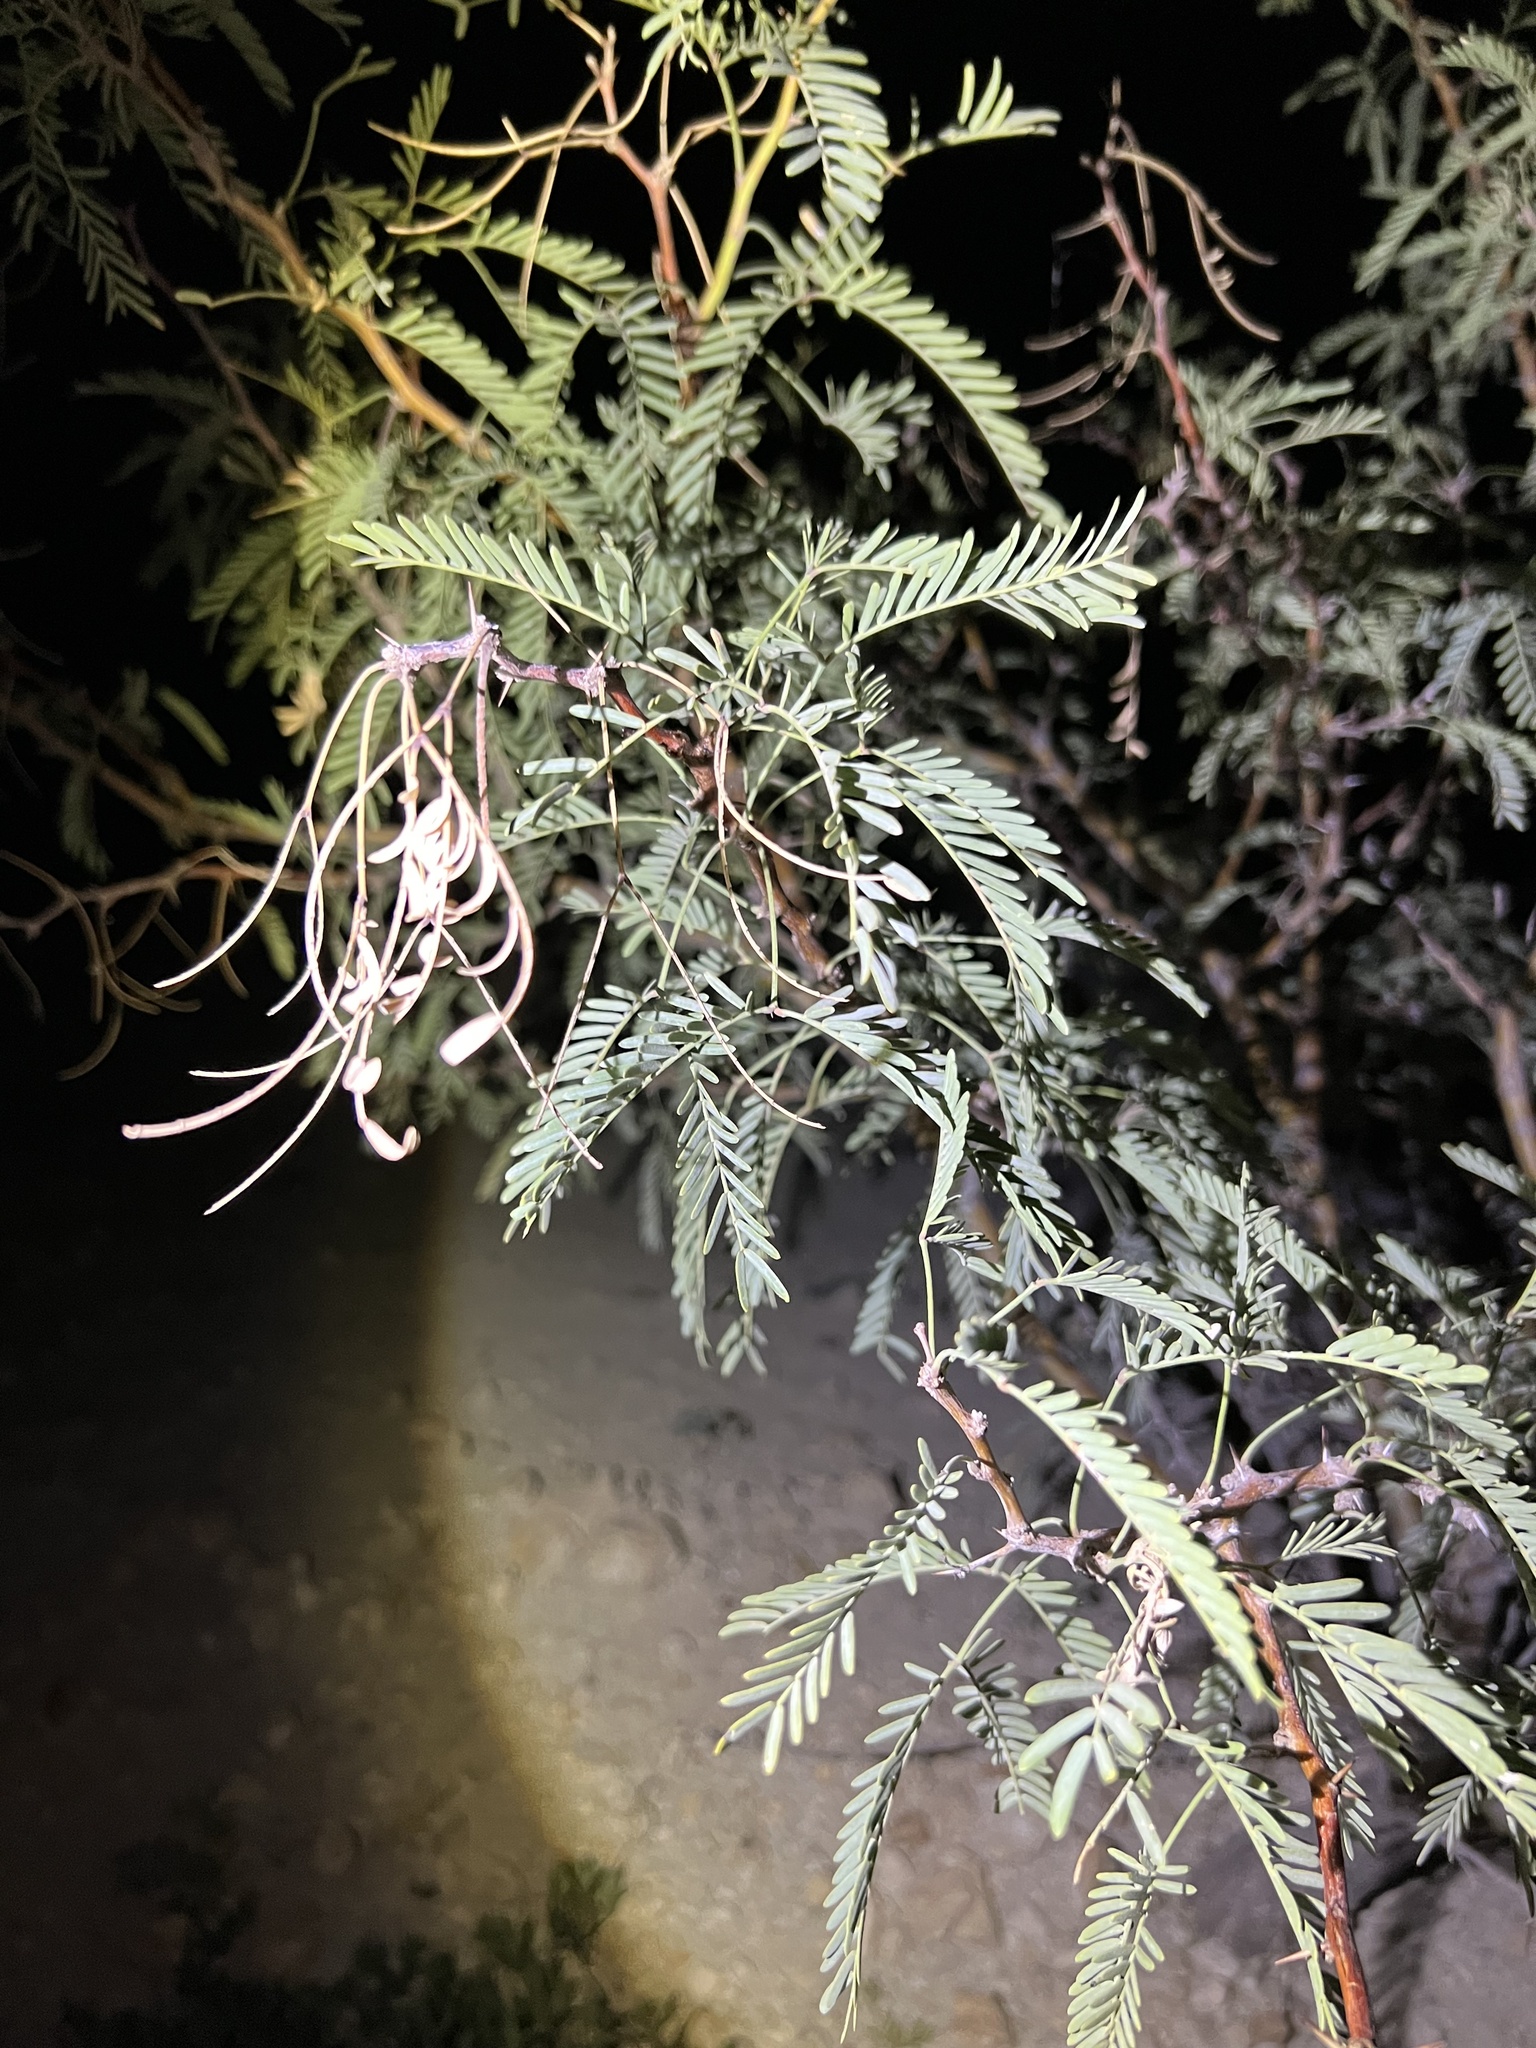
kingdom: Plantae
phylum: Tracheophyta
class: Magnoliopsida
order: Fabales
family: Fabaceae
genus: Prosopis
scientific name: Prosopis pubescens
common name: Screw-bean
